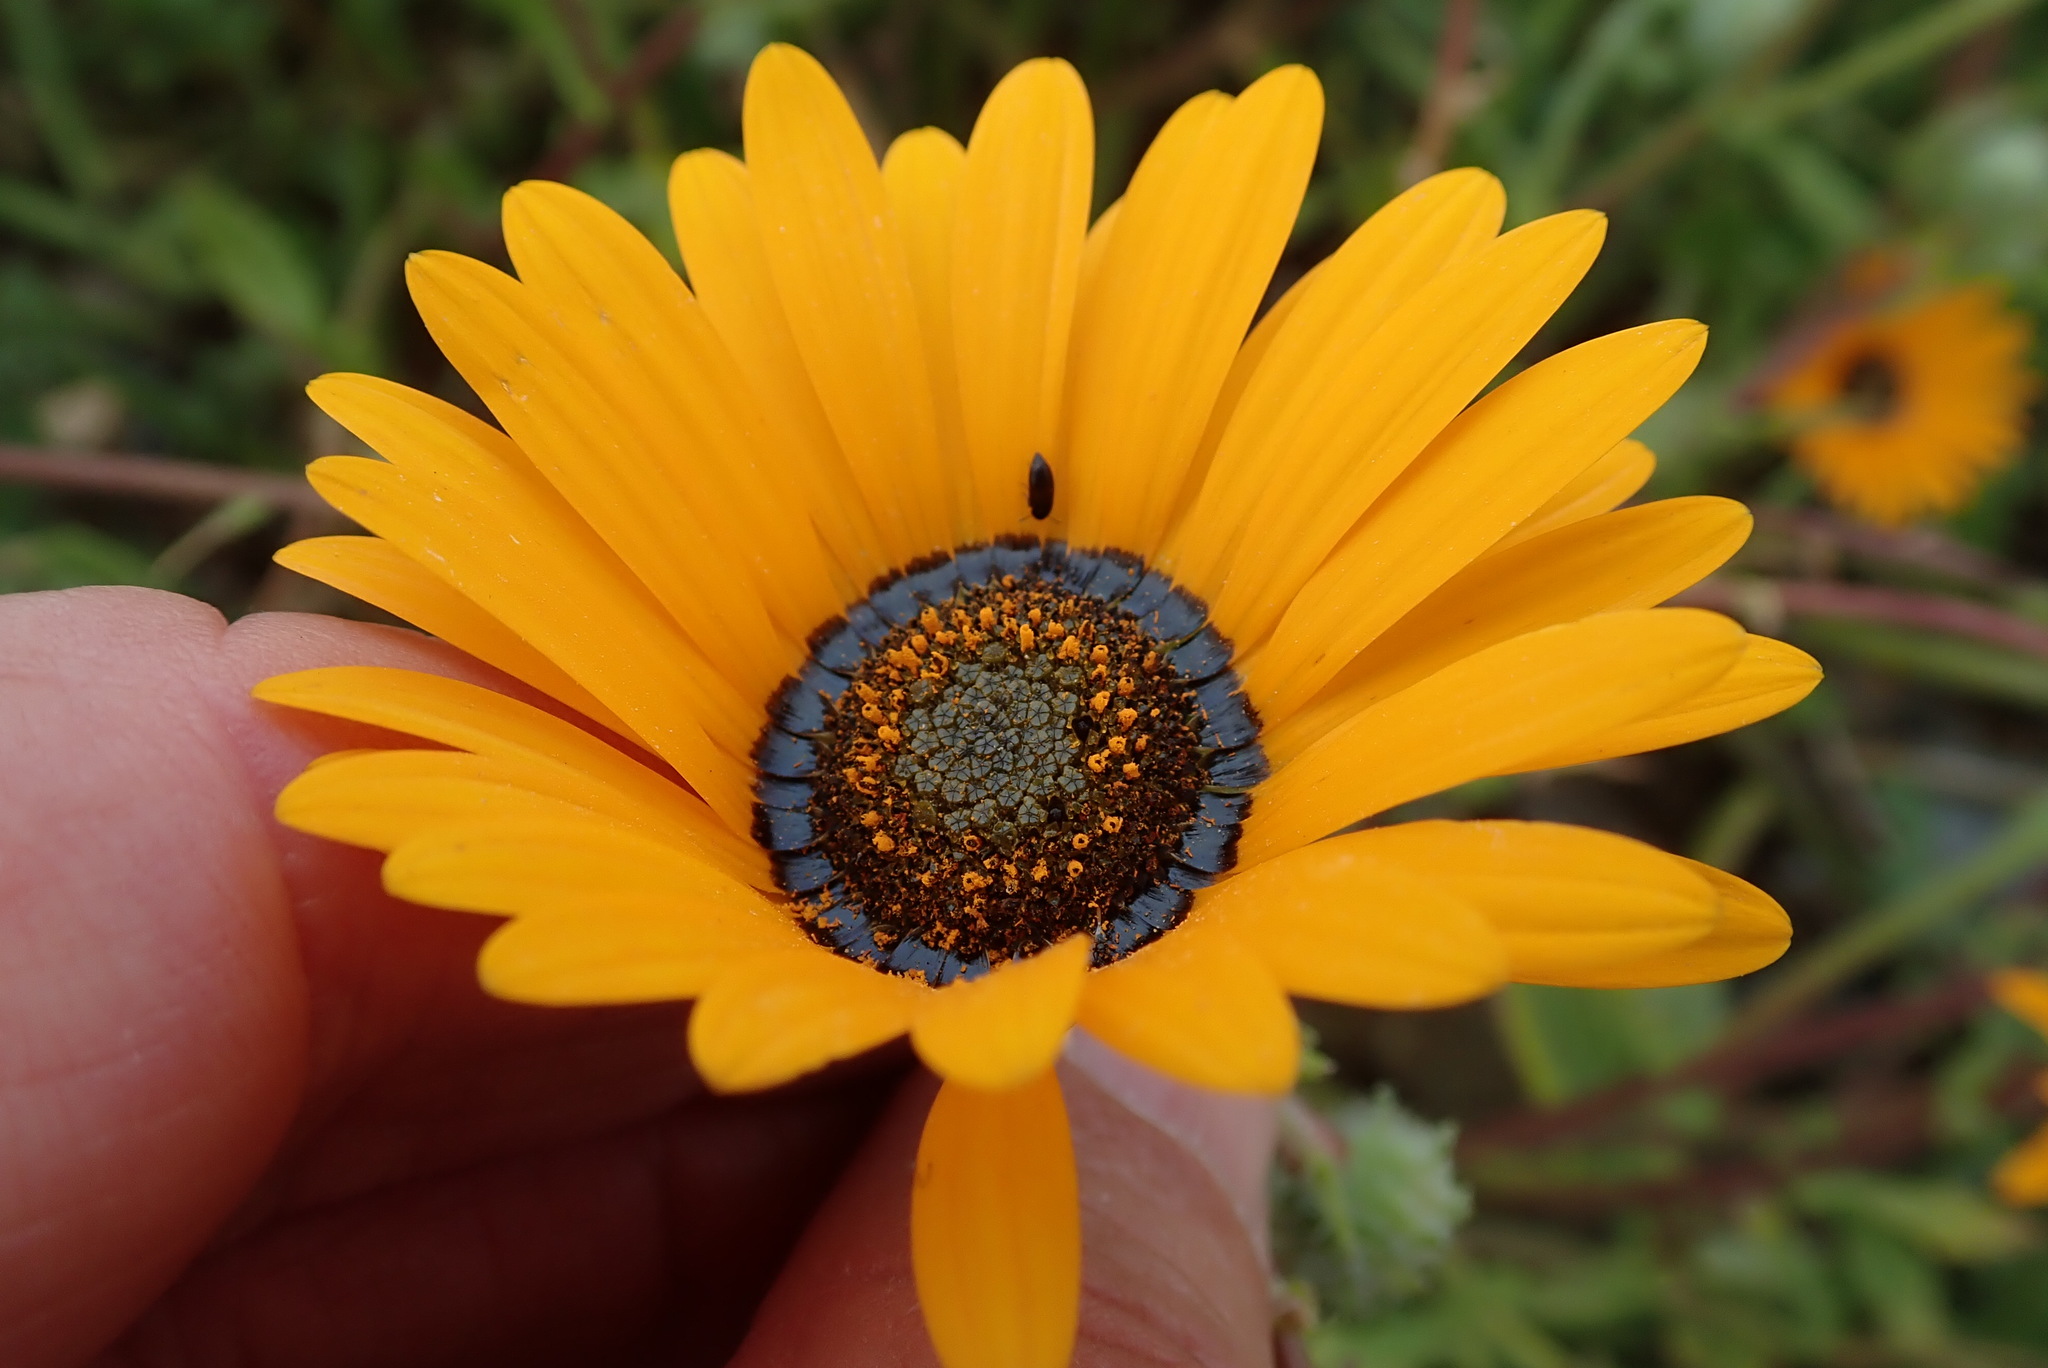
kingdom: Plantae
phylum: Tracheophyta
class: Magnoliopsida
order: Asterales
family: Asteraceae
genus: Arctotis
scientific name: Arctotis hirsuta
